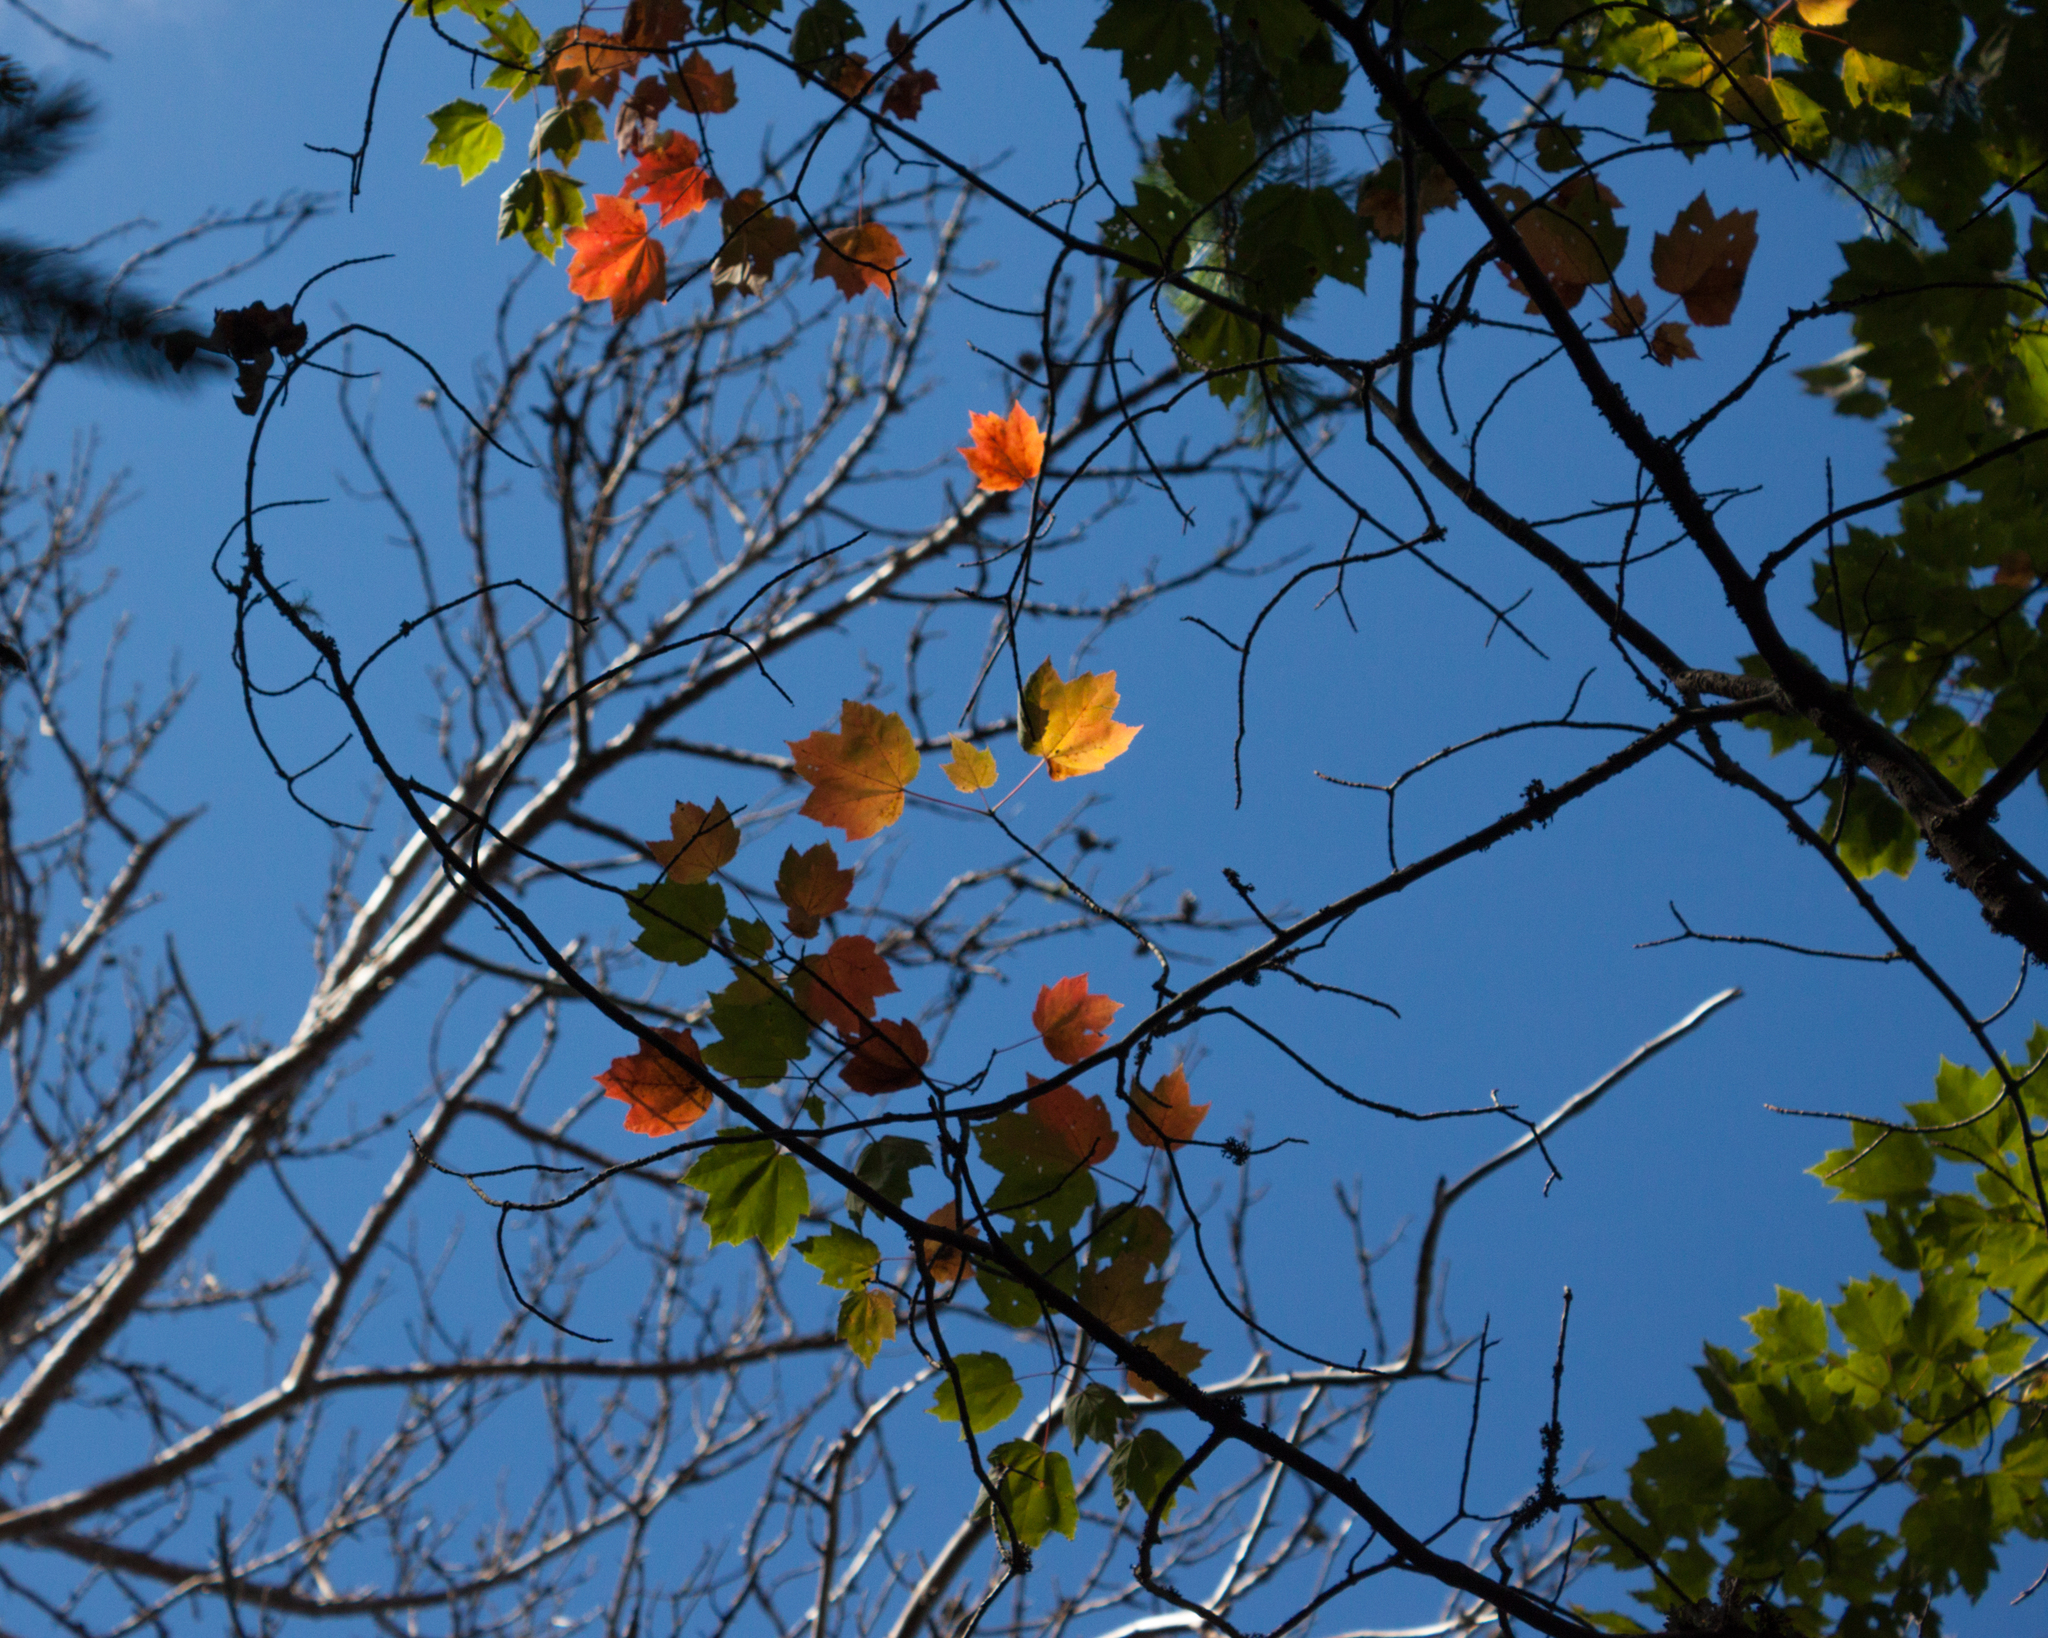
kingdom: Plantae
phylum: Tracheophyta
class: Magnoliopsida
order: Sapindales
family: Sapindaceae
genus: Acer
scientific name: Acer rubrum
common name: Red maple
